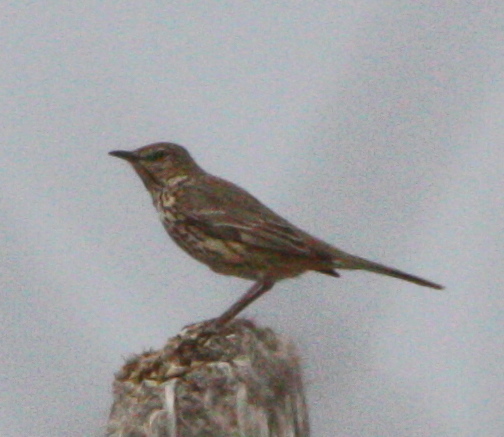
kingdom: Animalia
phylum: Chordata
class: Aves
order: Passeriformes
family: Mimidae
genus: Oreoscoptes
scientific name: Oreoscoptes montanus
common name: Sage thrasher
